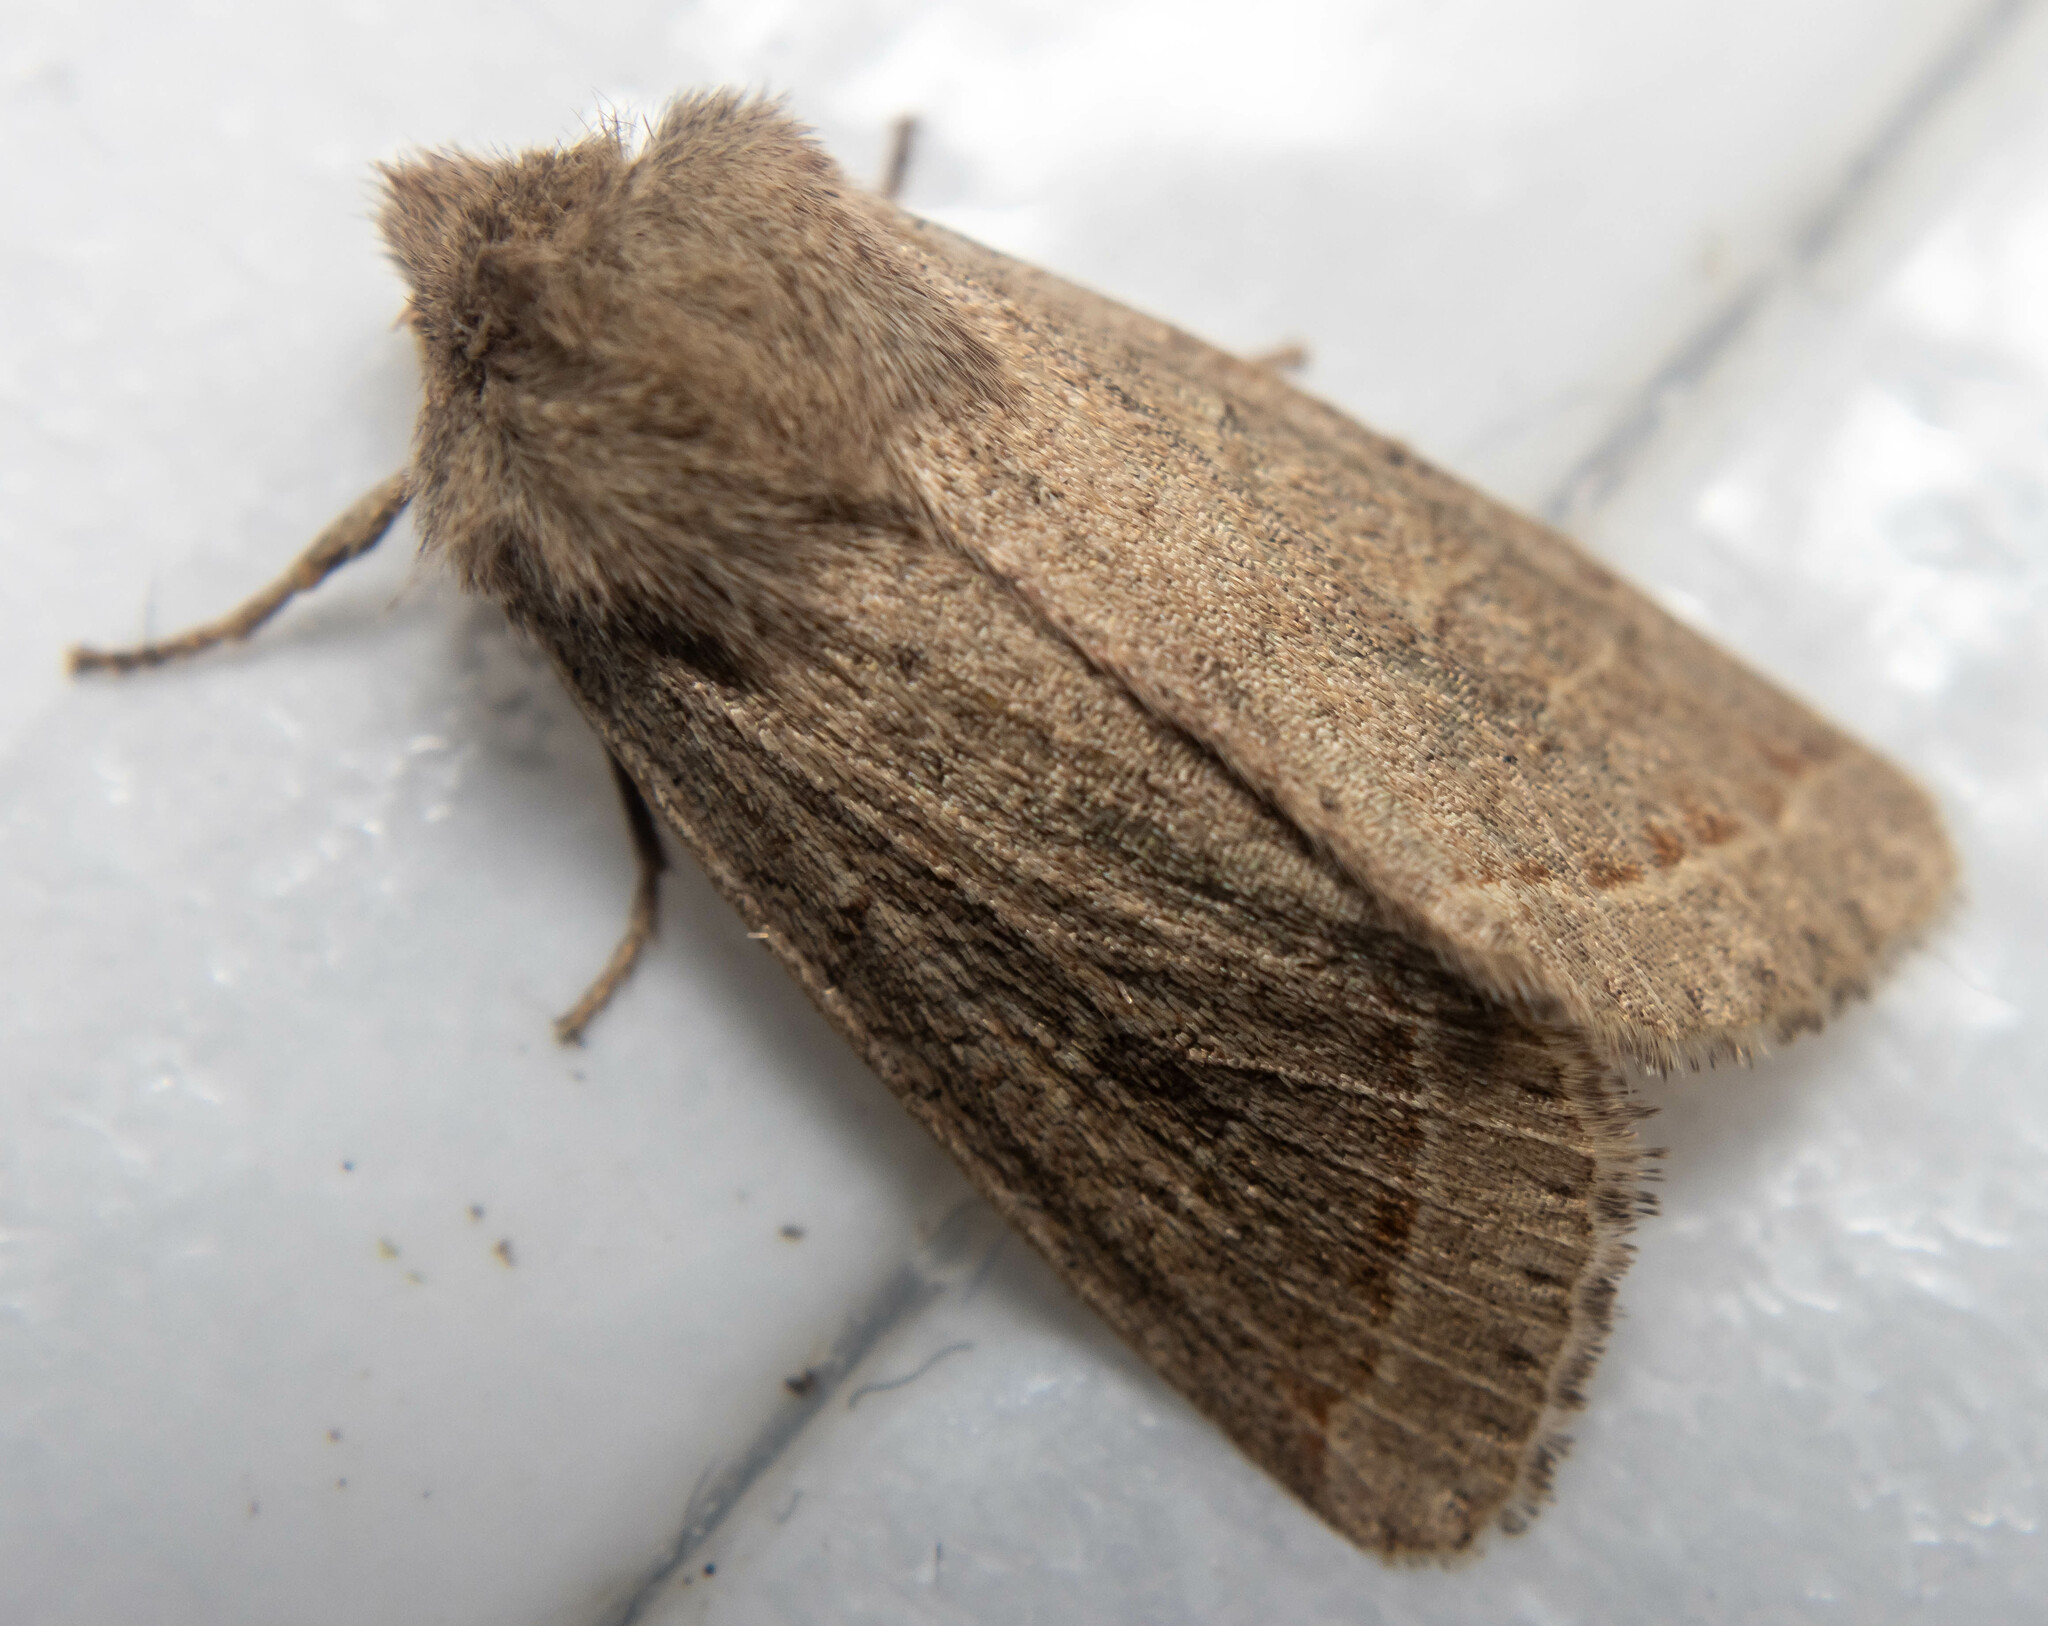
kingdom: Animalia
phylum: Arthropoda
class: Insecta
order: Lepidoptera
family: Noctuidae
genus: Orthosia
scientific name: Orthosia cerasi
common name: Common quaker
